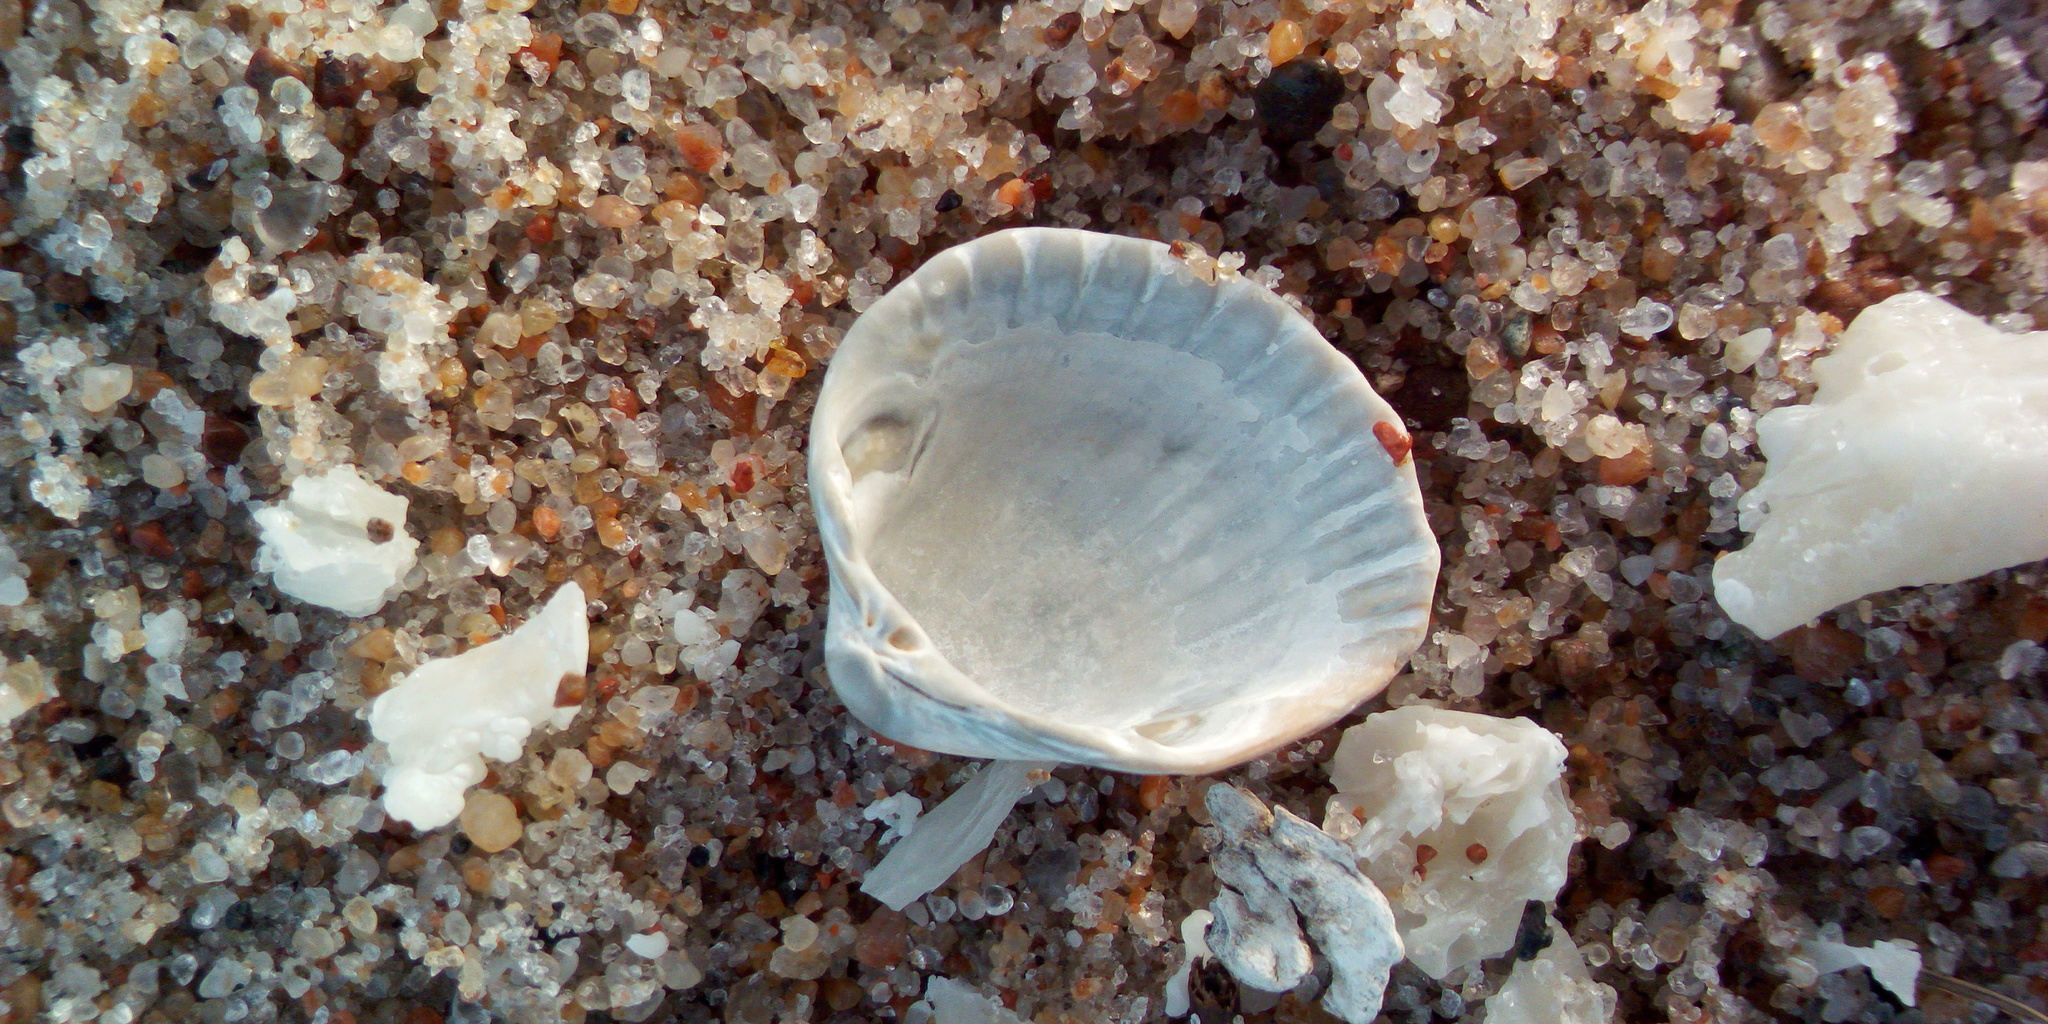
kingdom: Chromista
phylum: Ochrophyta
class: Phaeophyceae
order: Fucales
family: Fucaceae
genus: Fucus
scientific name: Fucus vesiculosus
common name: Bladder wrack
